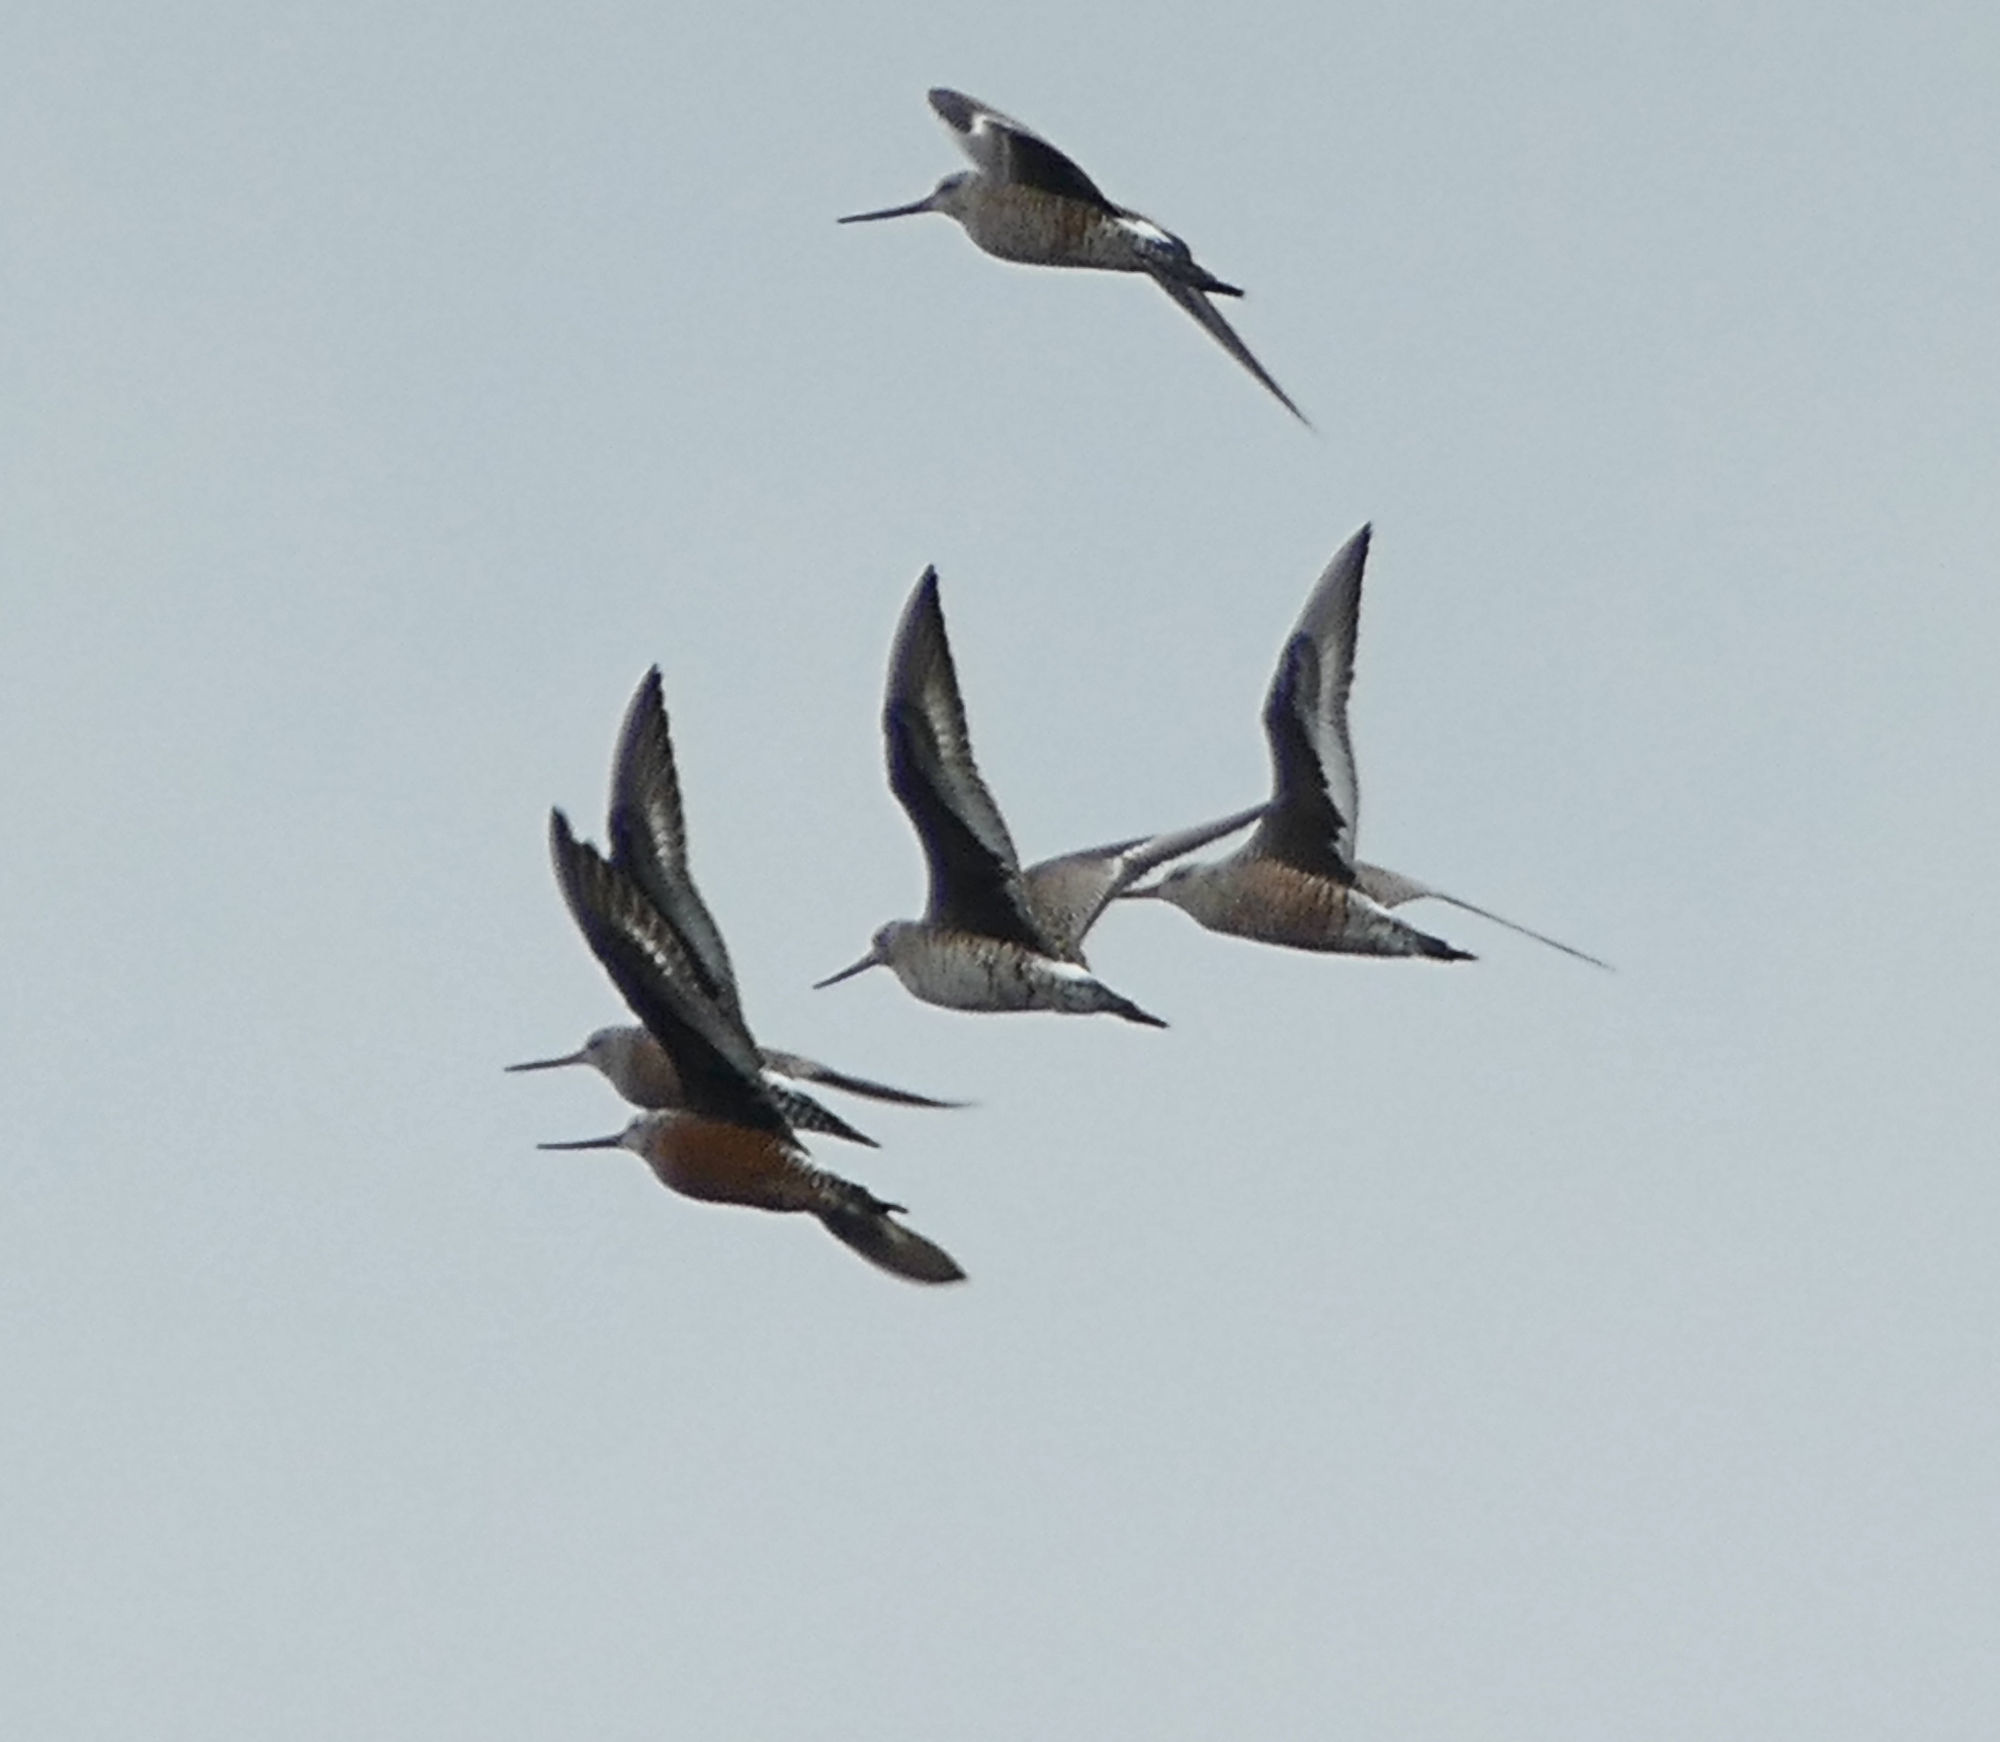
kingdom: Animalia
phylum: Chordata
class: Aves
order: Charadriiformes
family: Scolopacidae
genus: Limosa
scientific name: Limosa haemastica
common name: Hudsonian godwit
